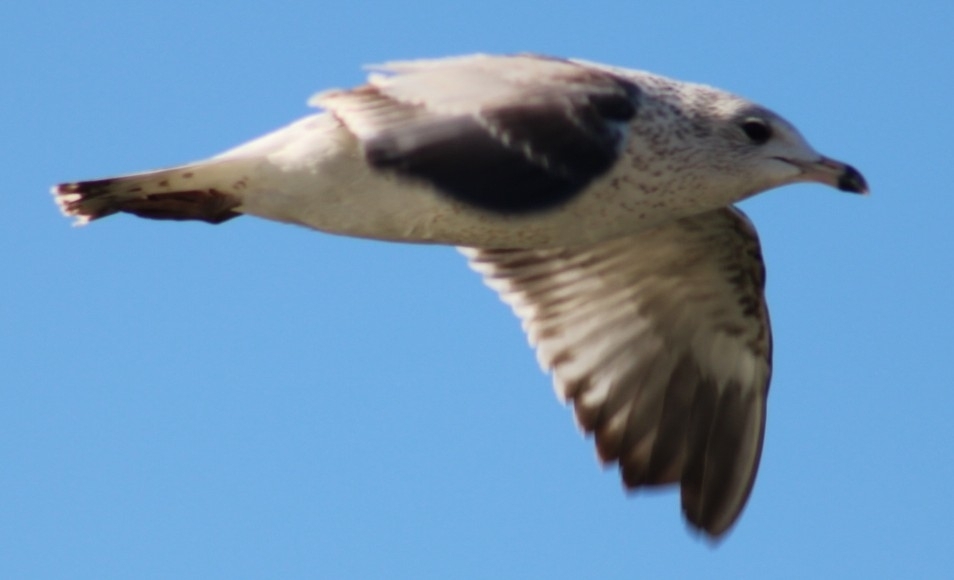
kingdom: Animalia
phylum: Chordata
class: Aves
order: Charadriiformes
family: Laridae
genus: Larus
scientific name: Larus delawarensis
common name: Ring-billed gull
